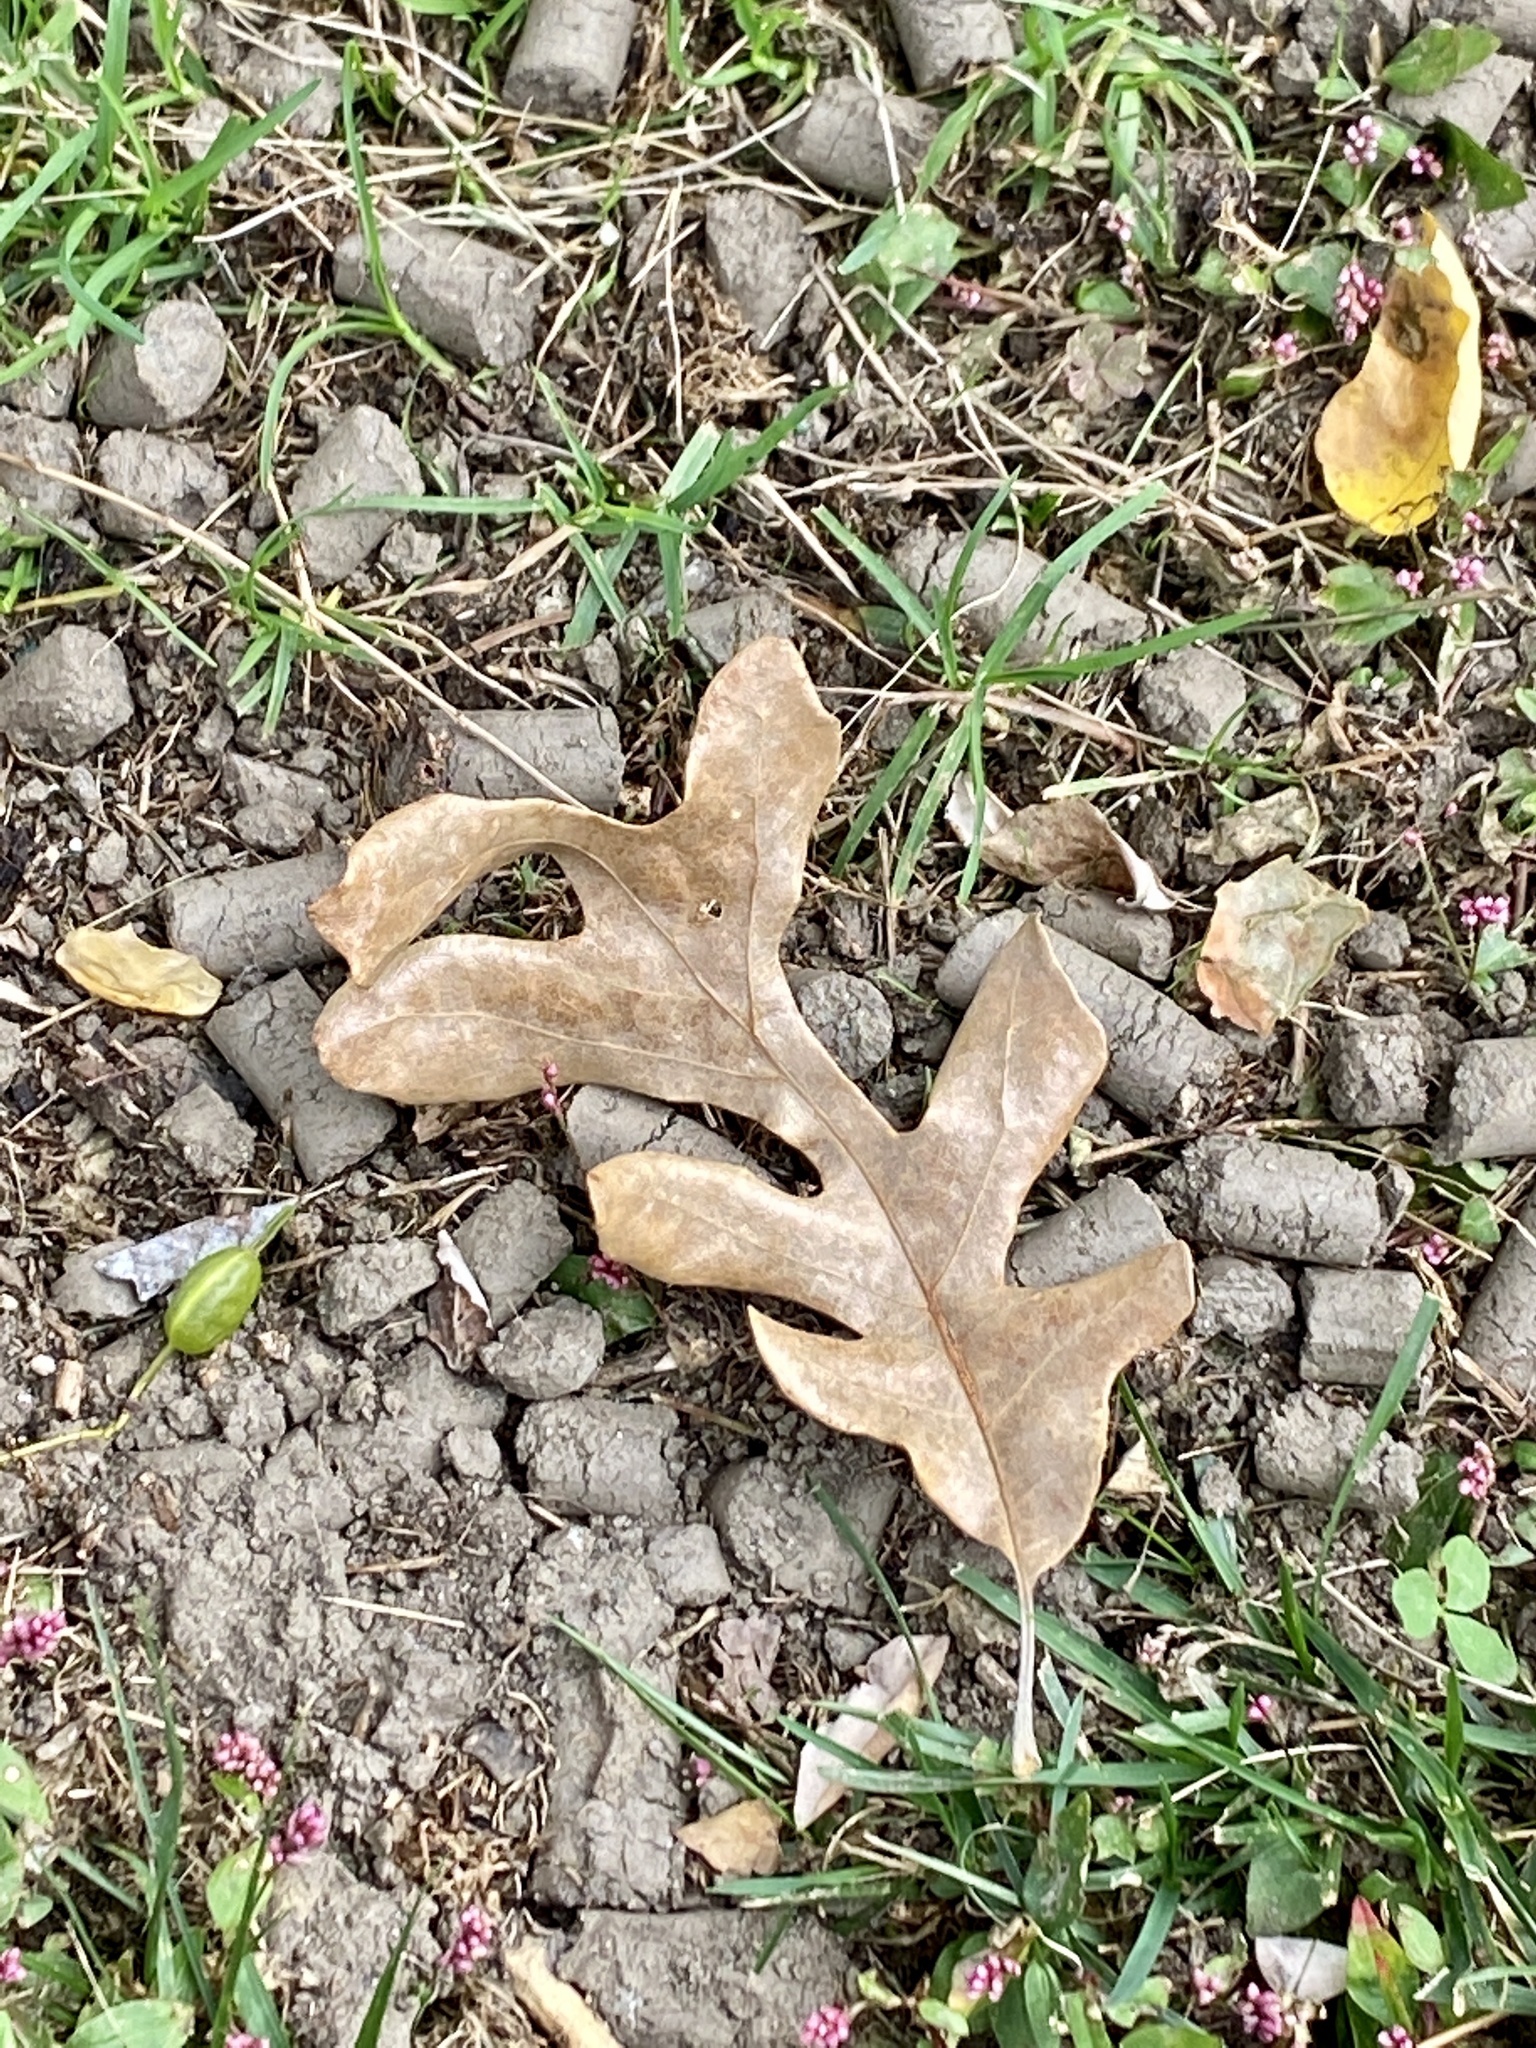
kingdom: Plantae
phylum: Tracheophyta
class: Magnoliopsida
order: Fagales
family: Fagaceae
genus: Quercus
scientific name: Quercus alba
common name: White oak
